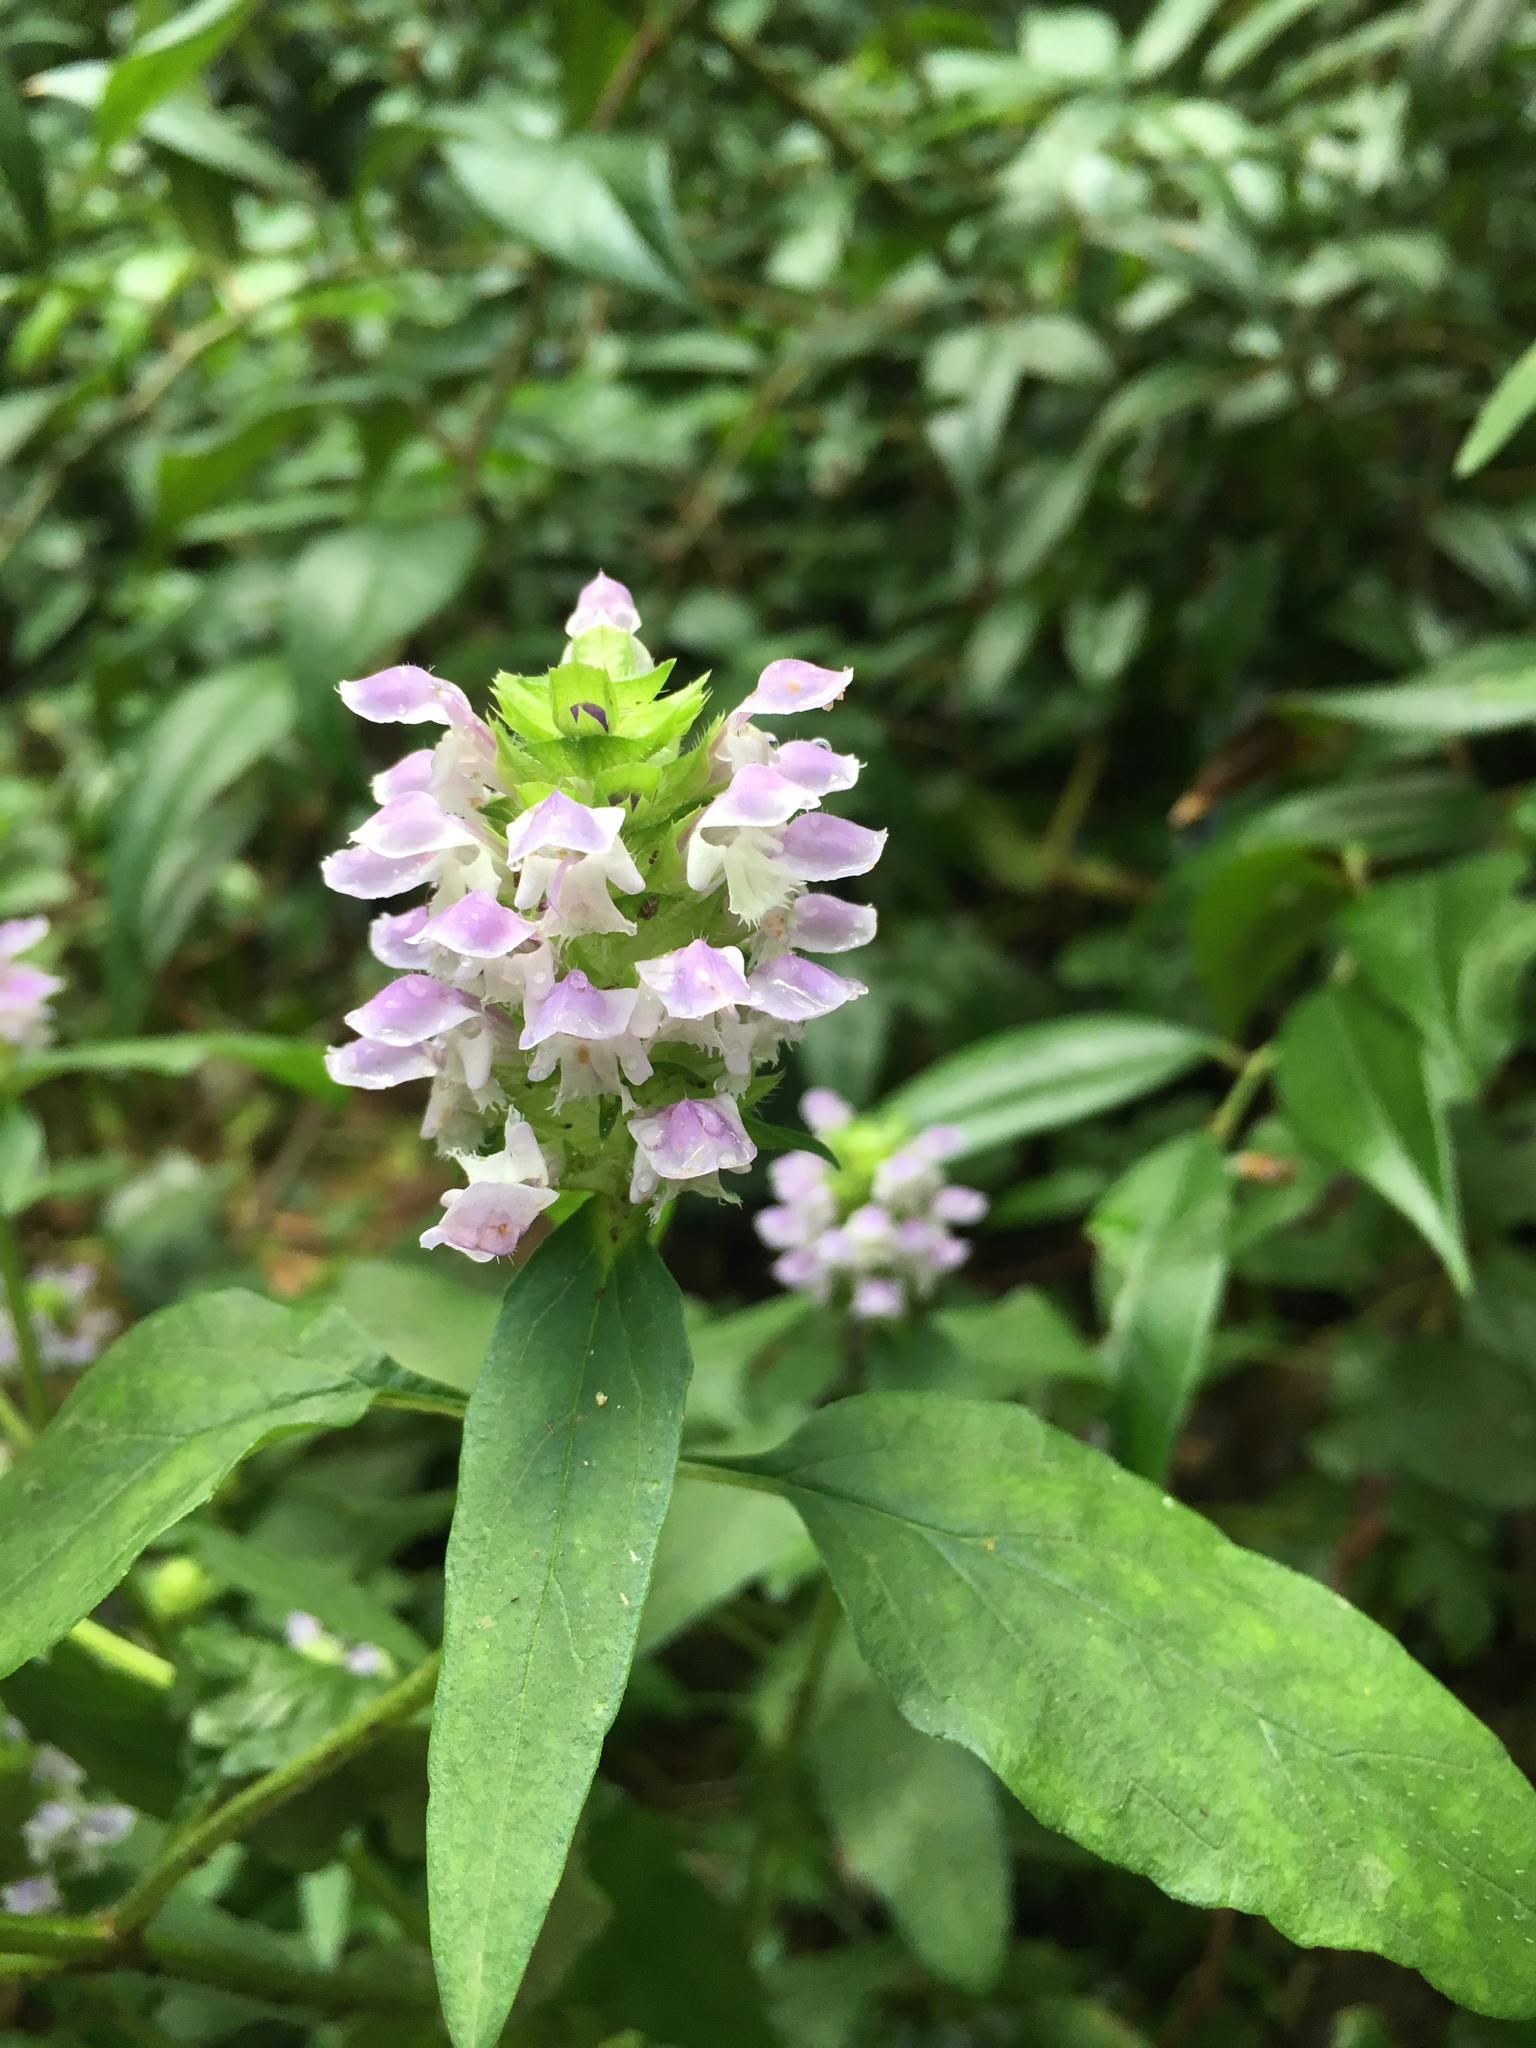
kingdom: Plantae
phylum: Tracheophyta
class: Magnoliopsida
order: Lamiales
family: Lamiaceae
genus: Prunella
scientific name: Prunella vulgaris
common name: Heal-all
